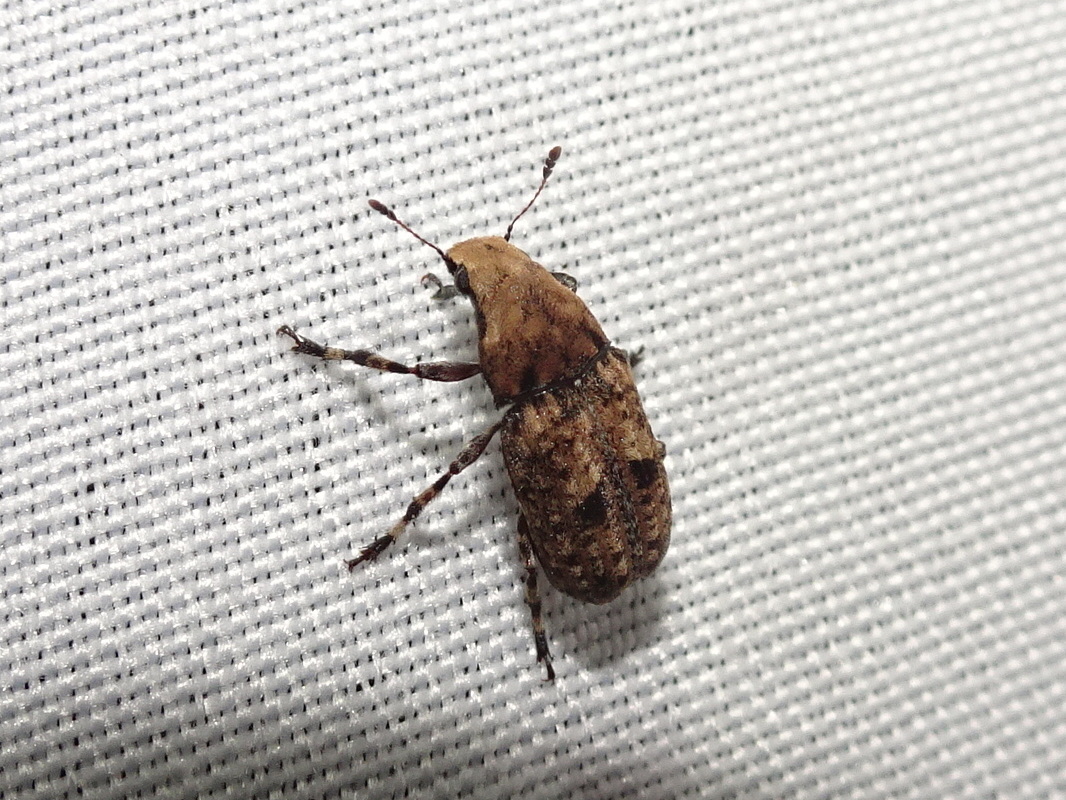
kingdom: Animalia
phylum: Arthropoda
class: Insecta
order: Coleoptera
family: Anthribidae
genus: Euparius
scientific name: Euparius marmoreus
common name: Marbled fungus weevil
